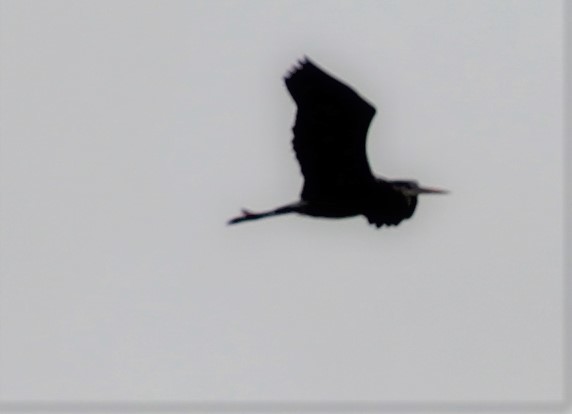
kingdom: Animalia
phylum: Chordata
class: Aves
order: Pelecaniformes
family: Ardeidae
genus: Ardea
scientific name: Ardea herodias
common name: Great blue heron
